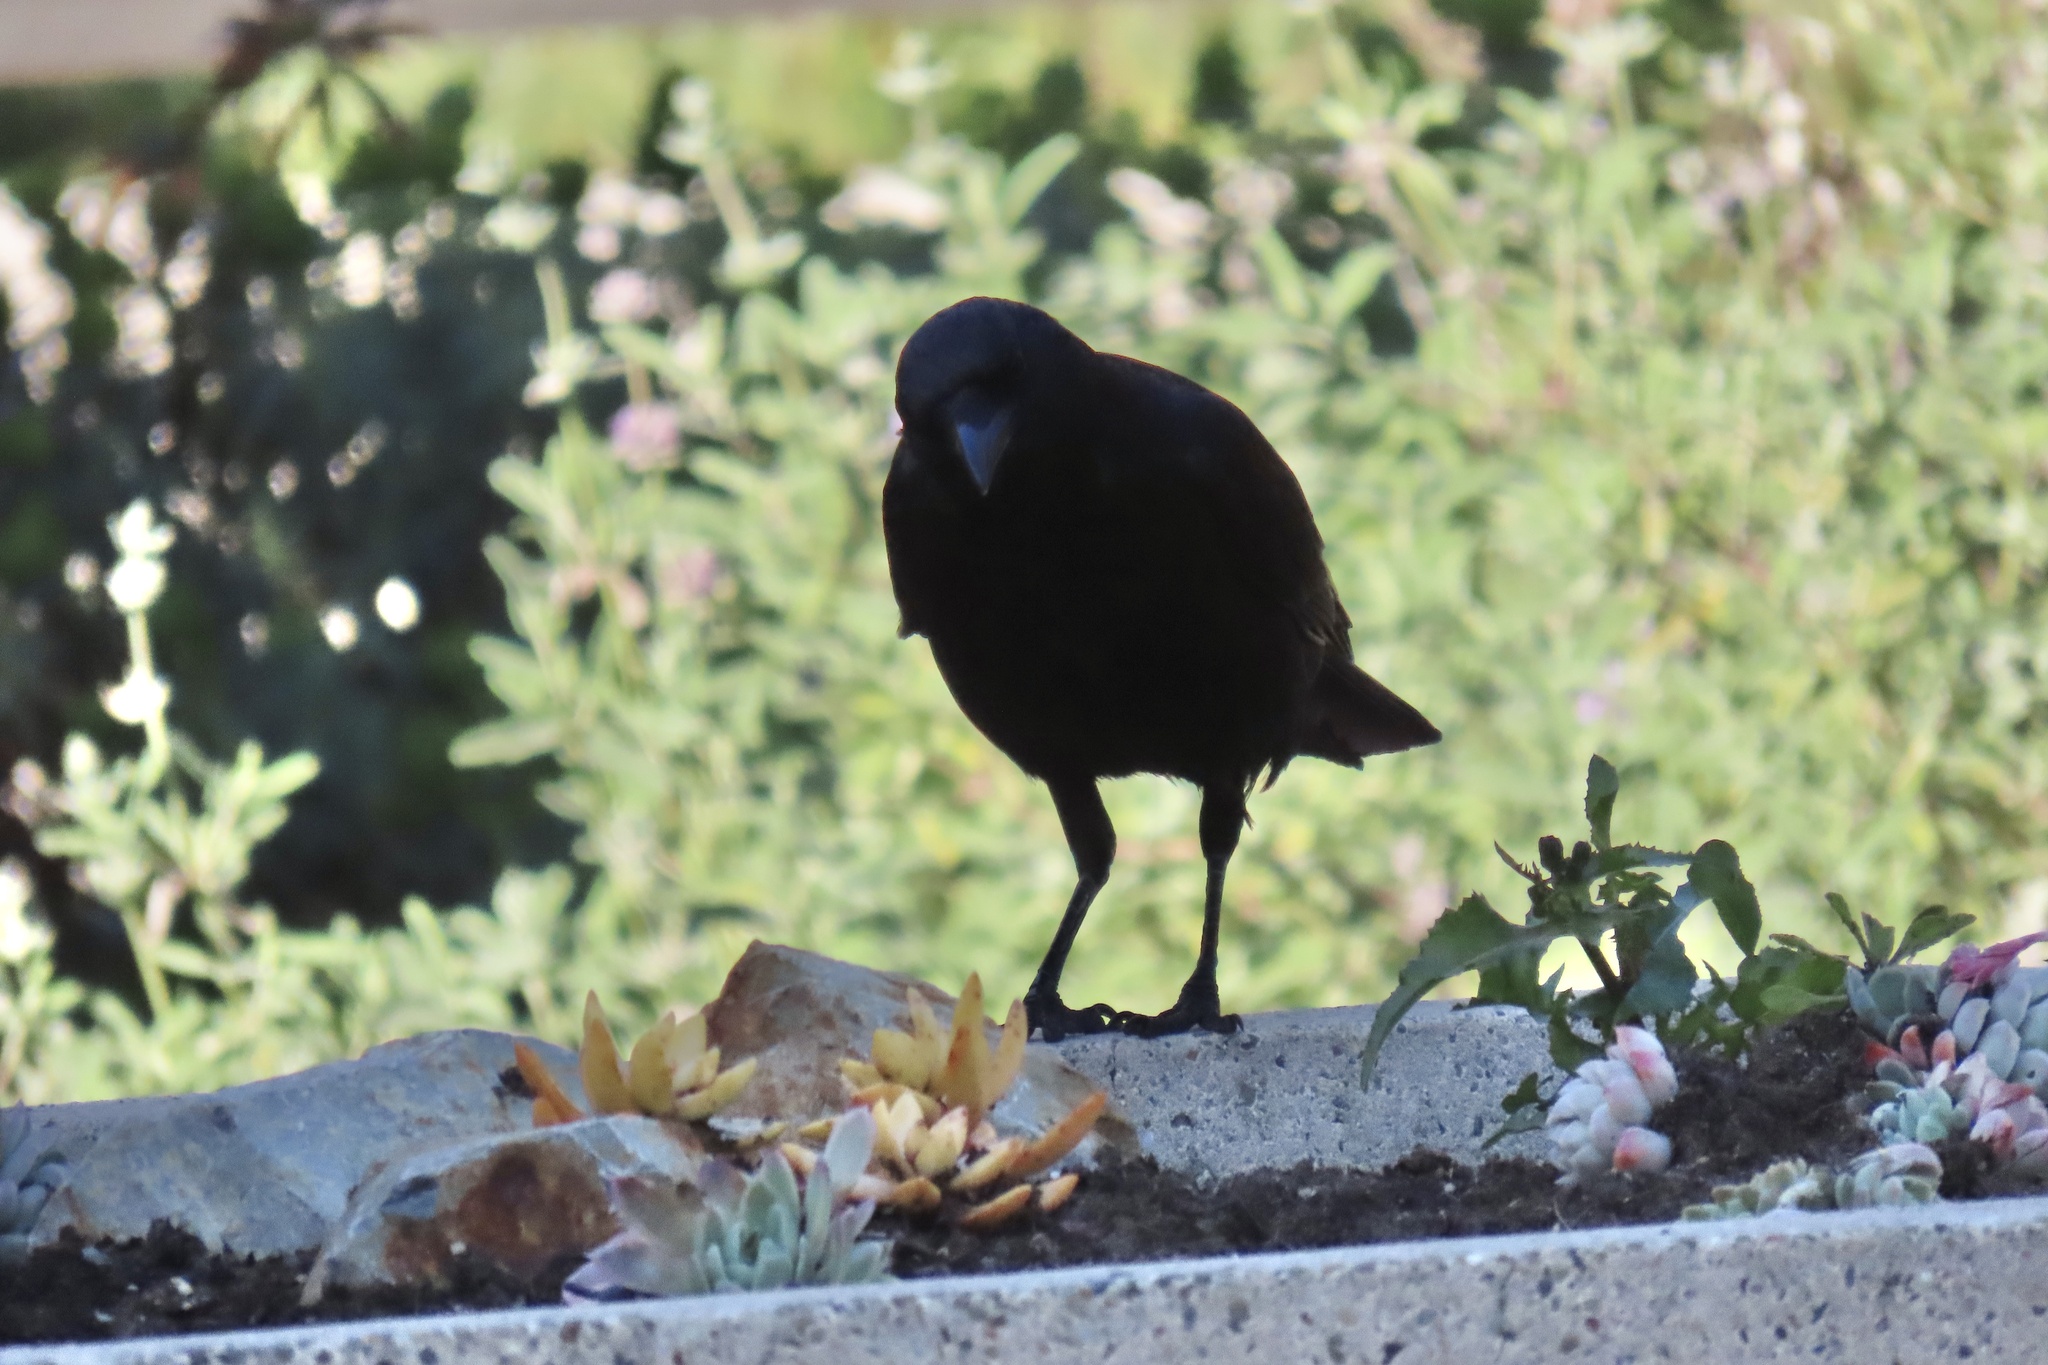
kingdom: Animalia
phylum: Chordata
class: Aves
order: Passeriformes
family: Corvidae
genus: Corvus
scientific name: Corvus brachyrhynchos
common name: American crow
